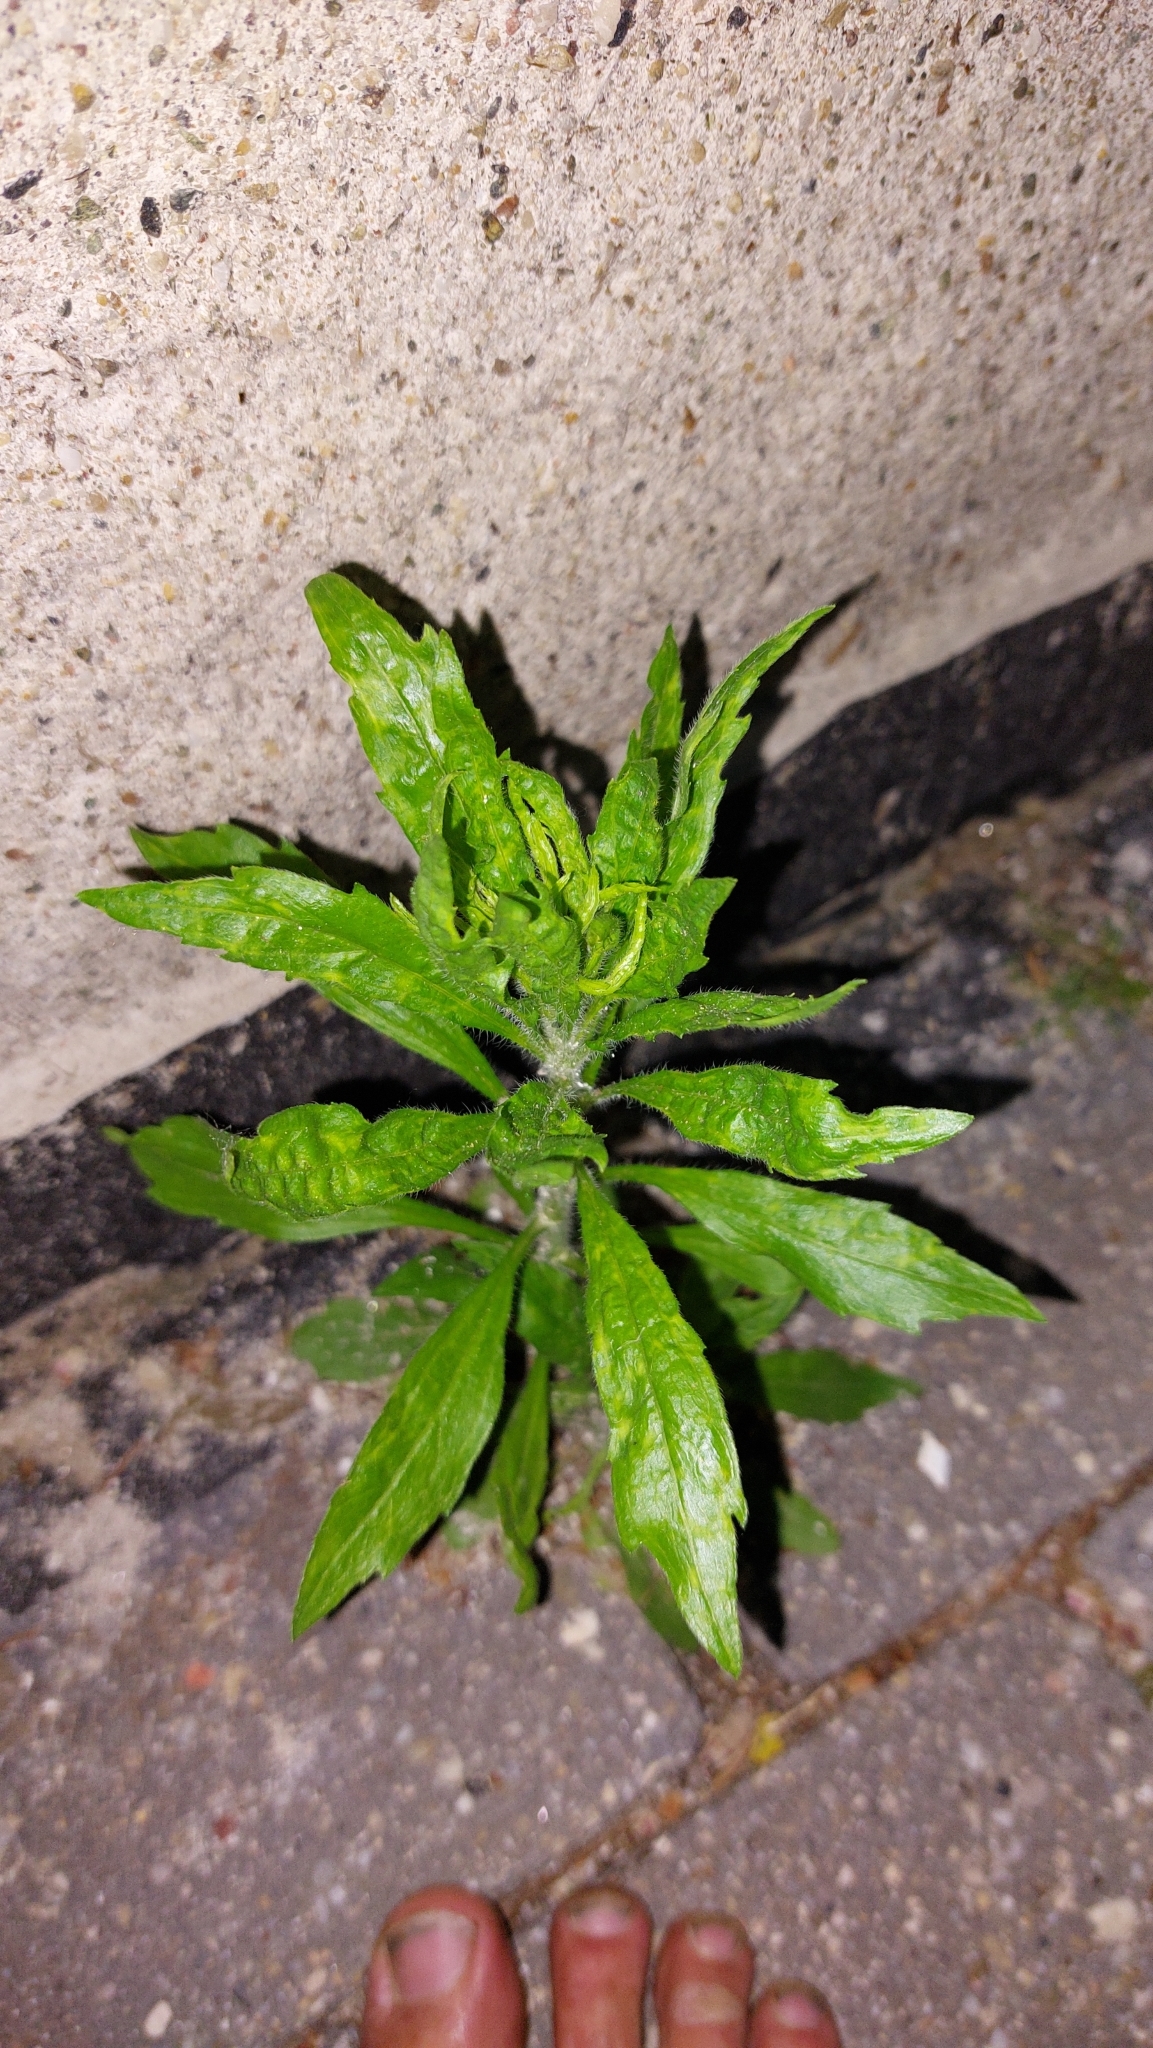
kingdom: Plantae
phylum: Tracheophyta
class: Magnoliopsida
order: Asterales
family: Asteraceae
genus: Erigeron
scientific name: Erigeron canadensis
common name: Canadian fleabane
